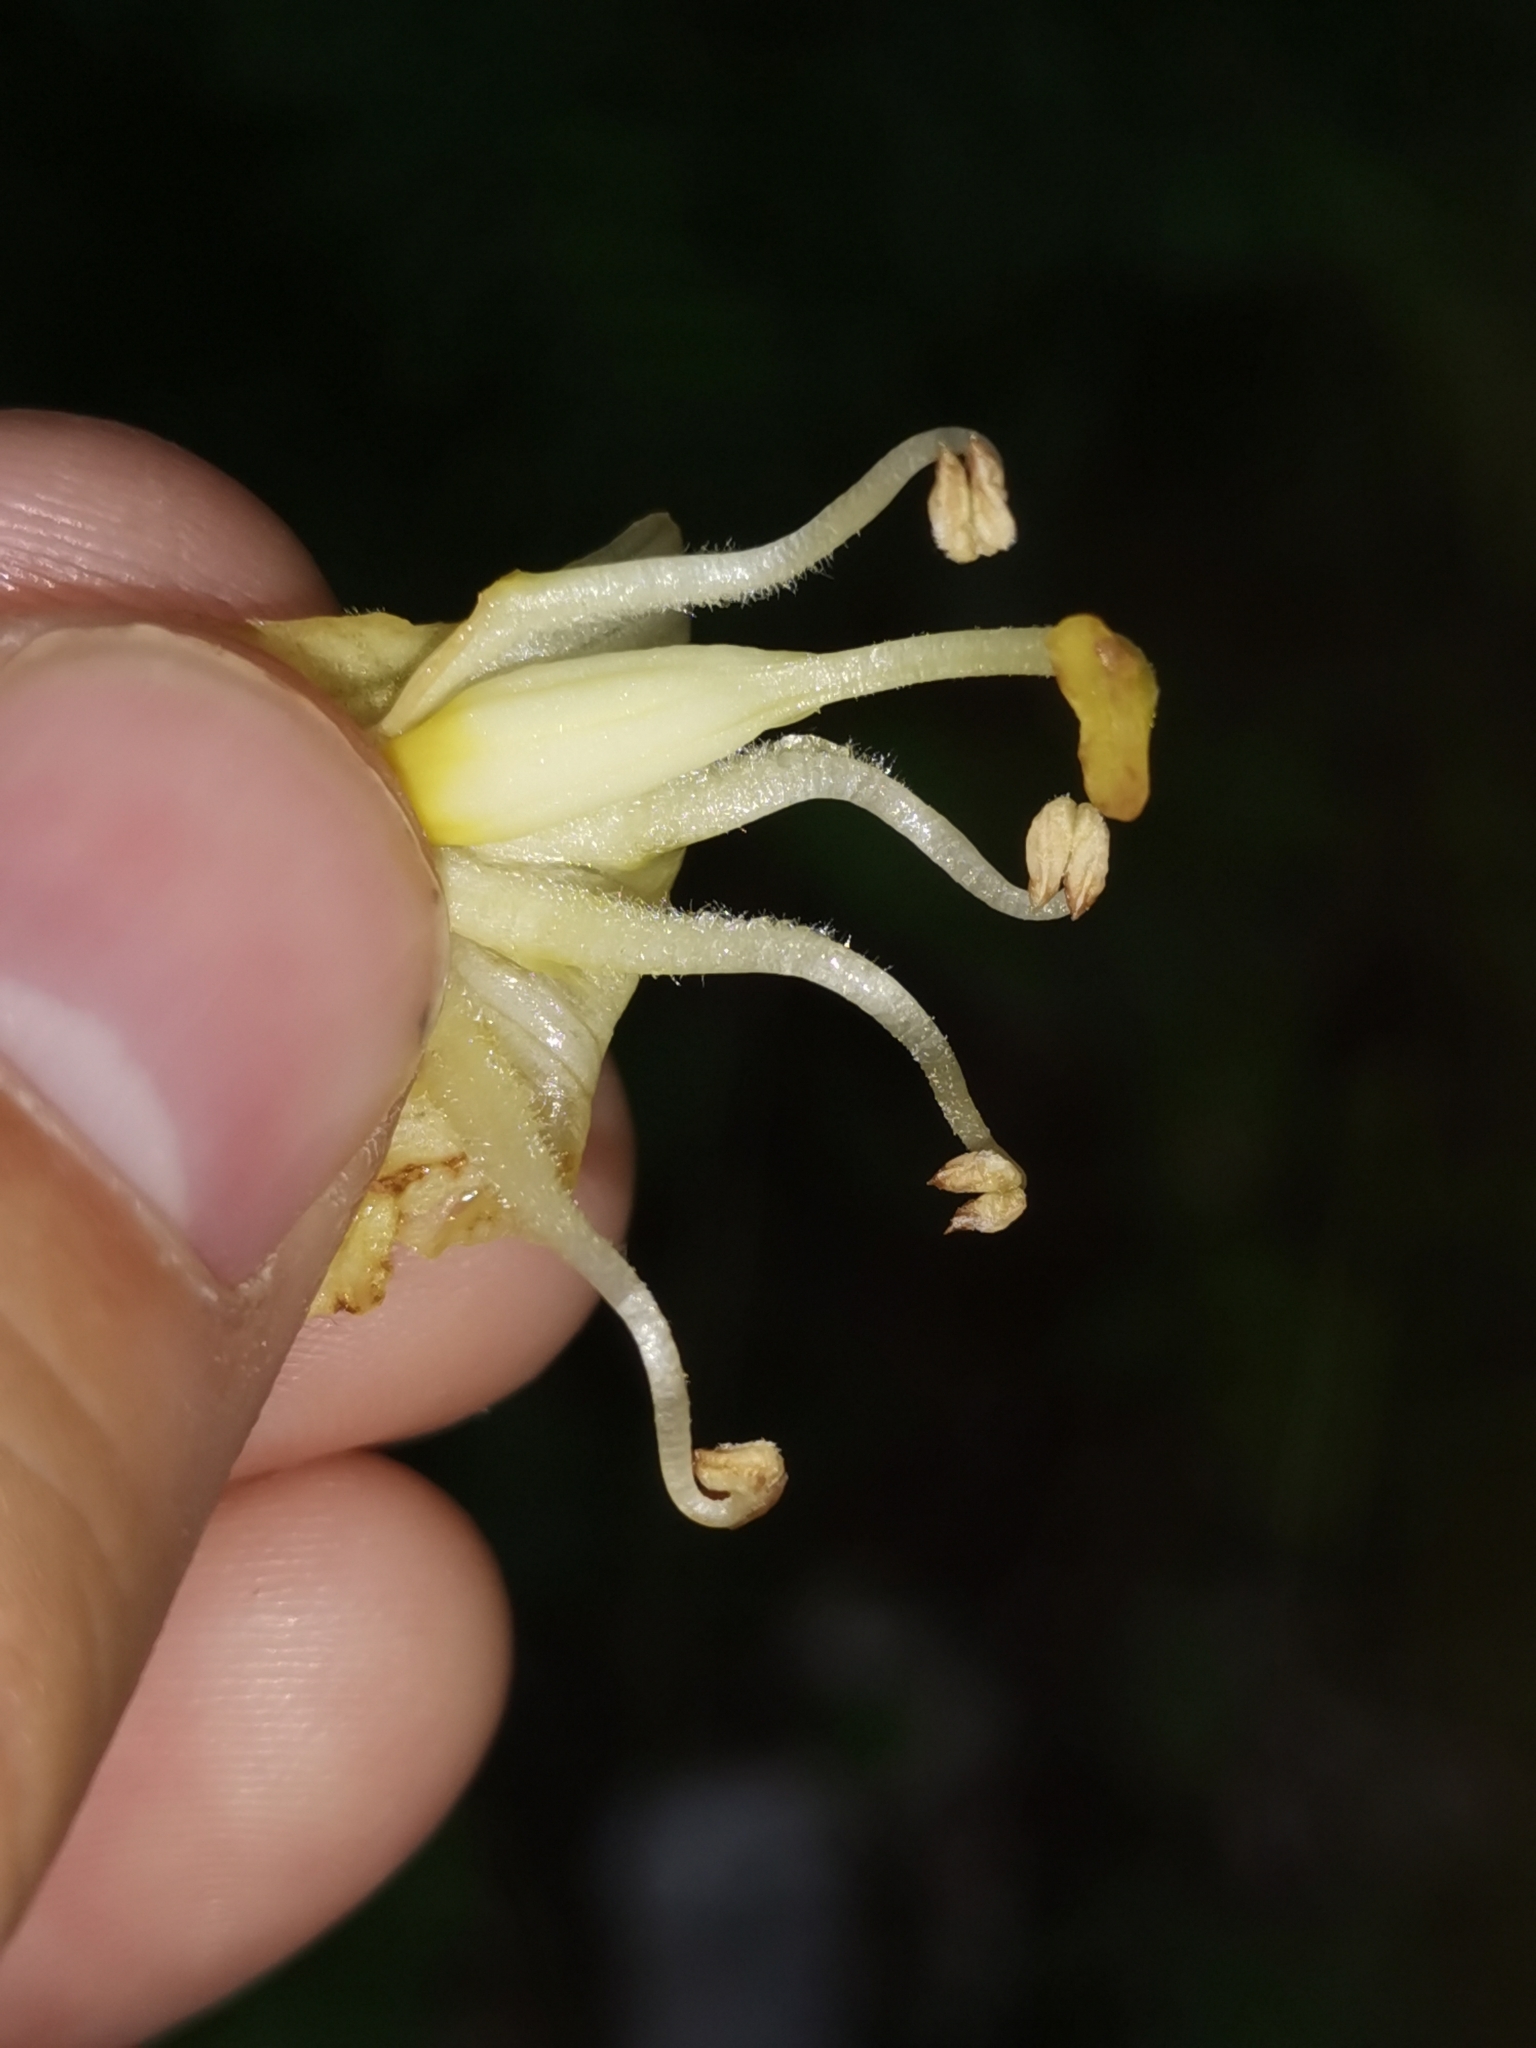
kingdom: Plantae
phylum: Tracheophyta
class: Magnoliopsida
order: Lamiales
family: Orobanchaceae
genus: Orobanche
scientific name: Orobanche lycoctoni
